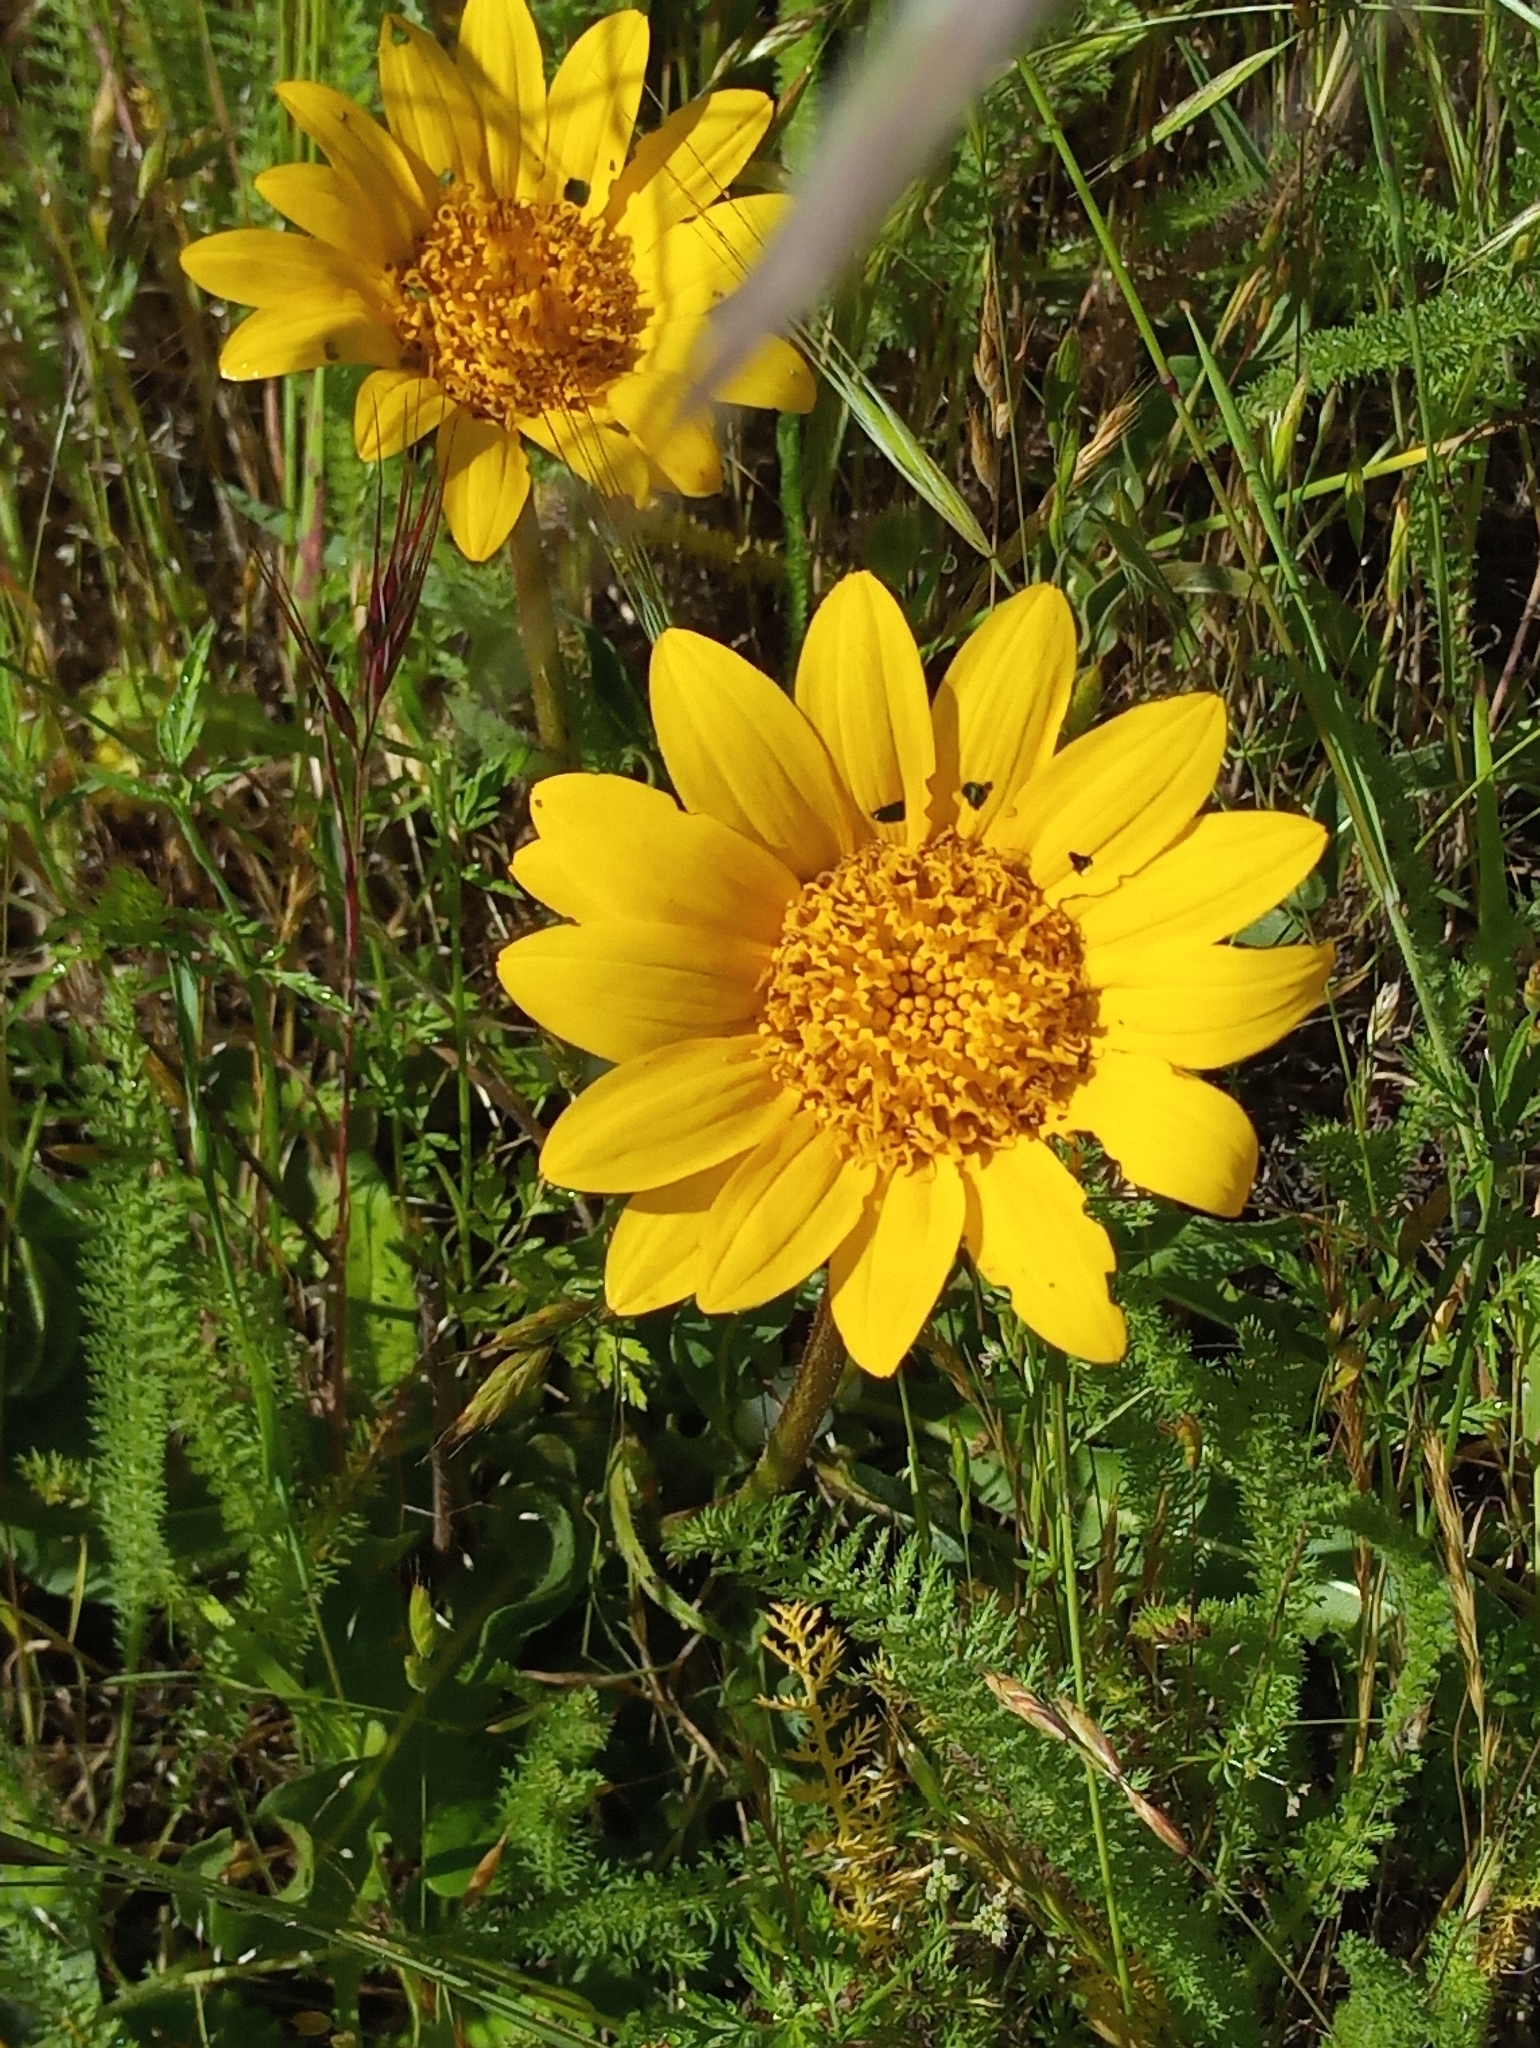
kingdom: Plantae
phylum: Tracheophyta
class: Magnoliopsida
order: Asterales
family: Asteraceae
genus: Wyethia
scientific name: Wyethia angustifolia
